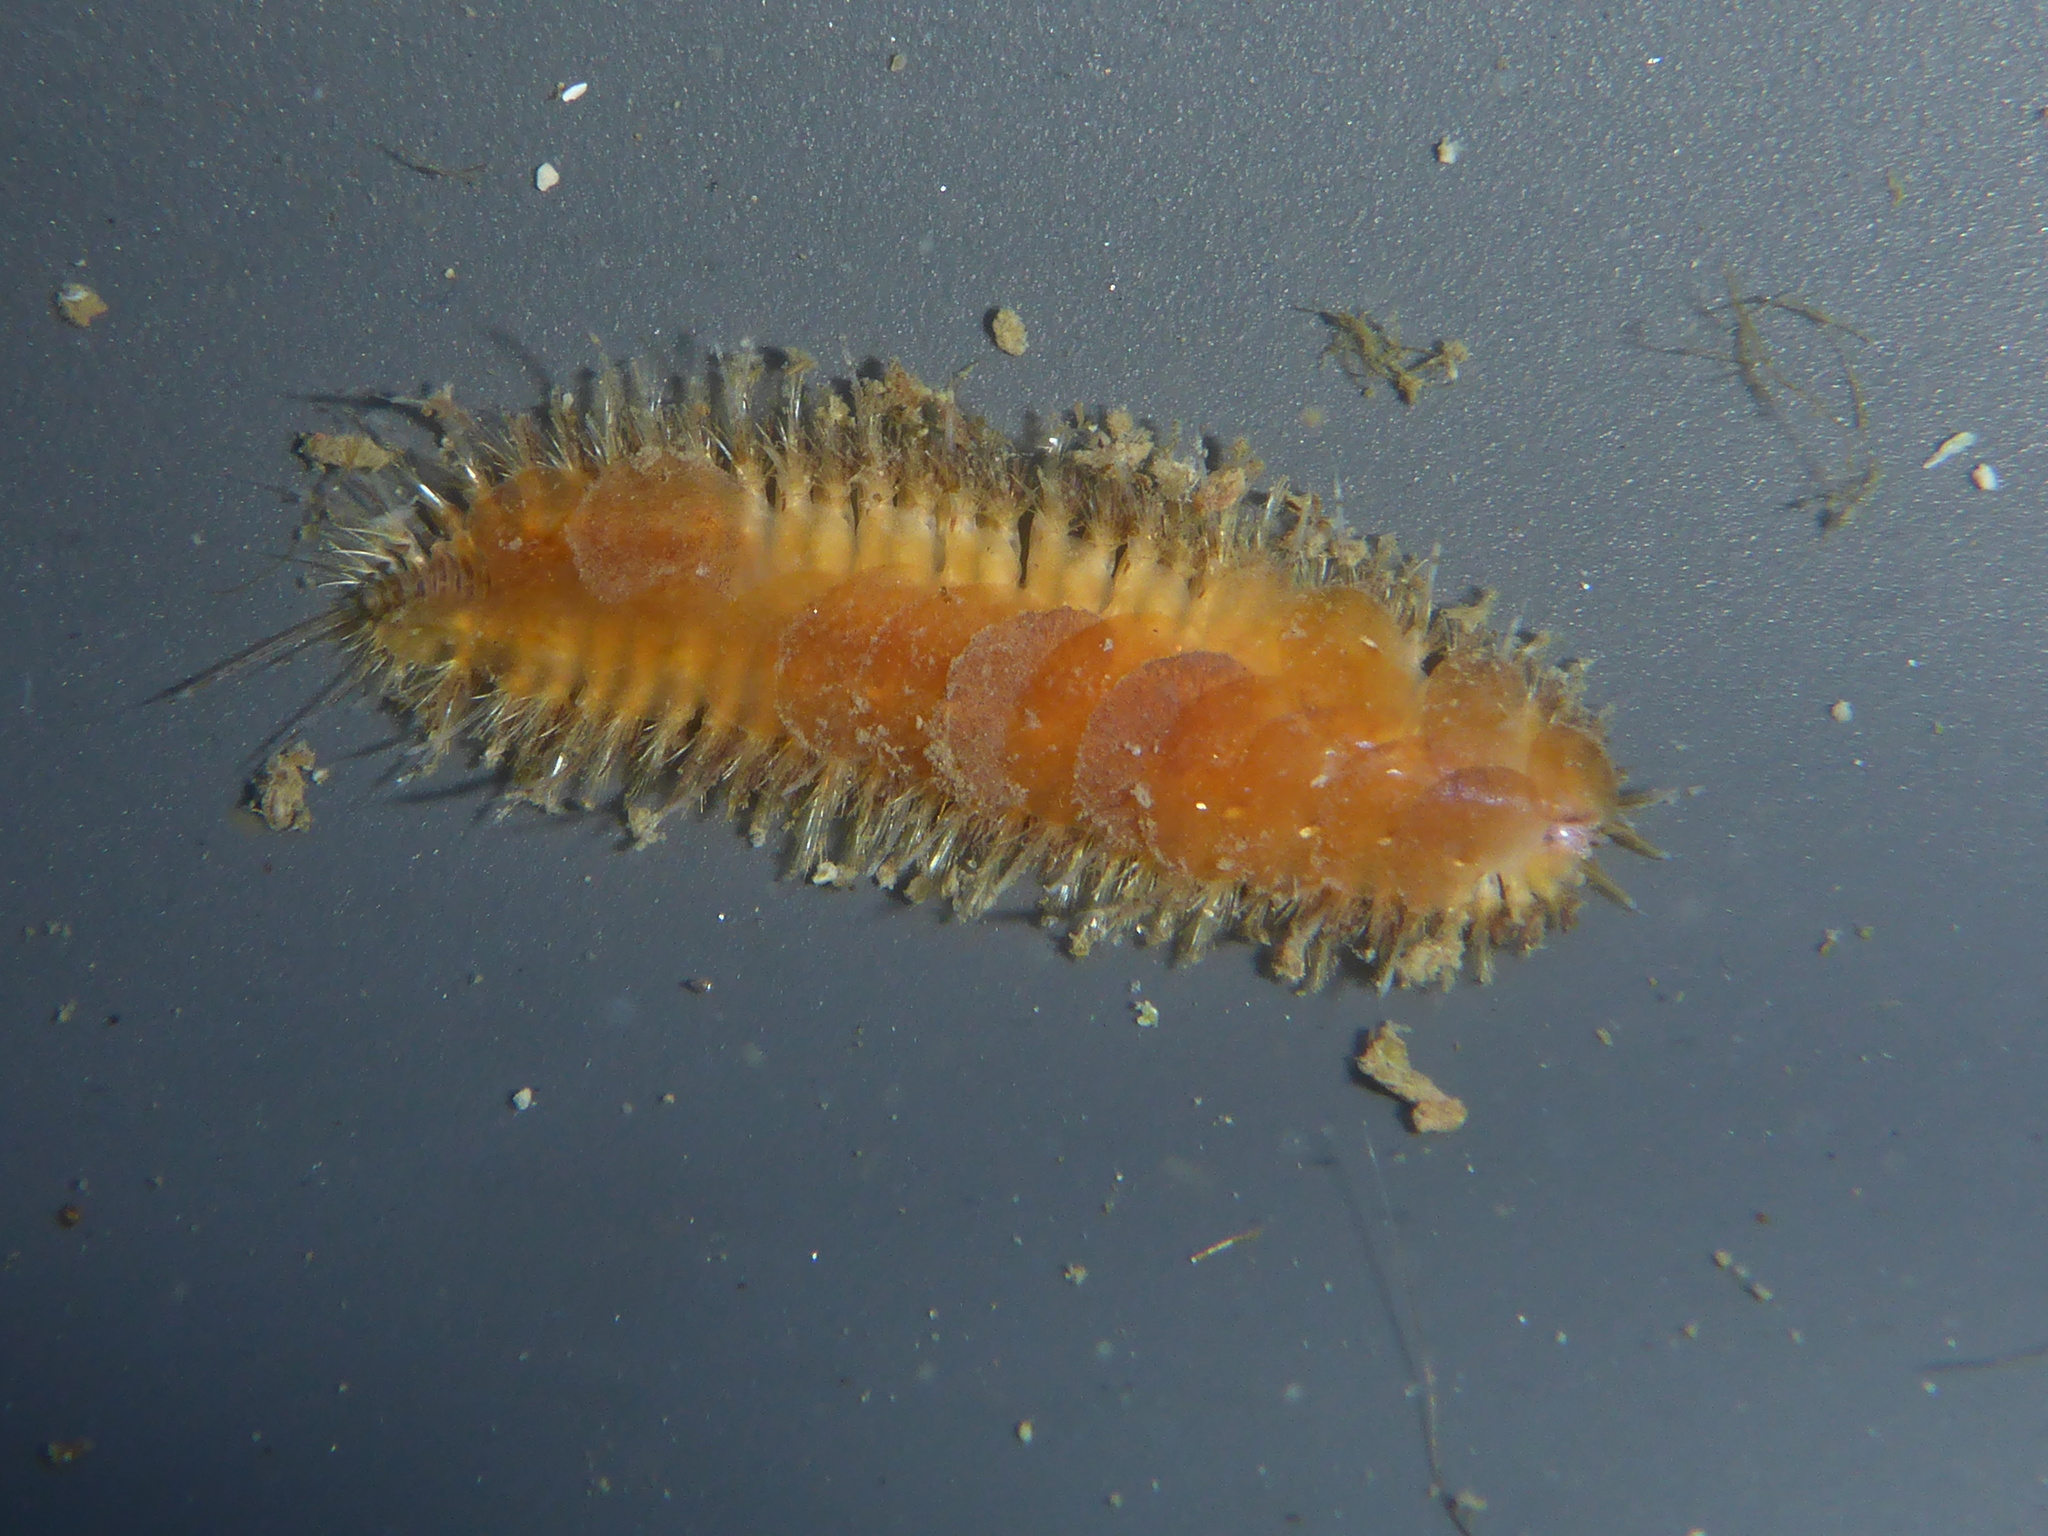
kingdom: Animalia
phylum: Annelida
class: Polychaeta
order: Phyllodocida
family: Polynoidae
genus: Harmothoe
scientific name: Harmothoe imbricata
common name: Fifteen-scaled worm
